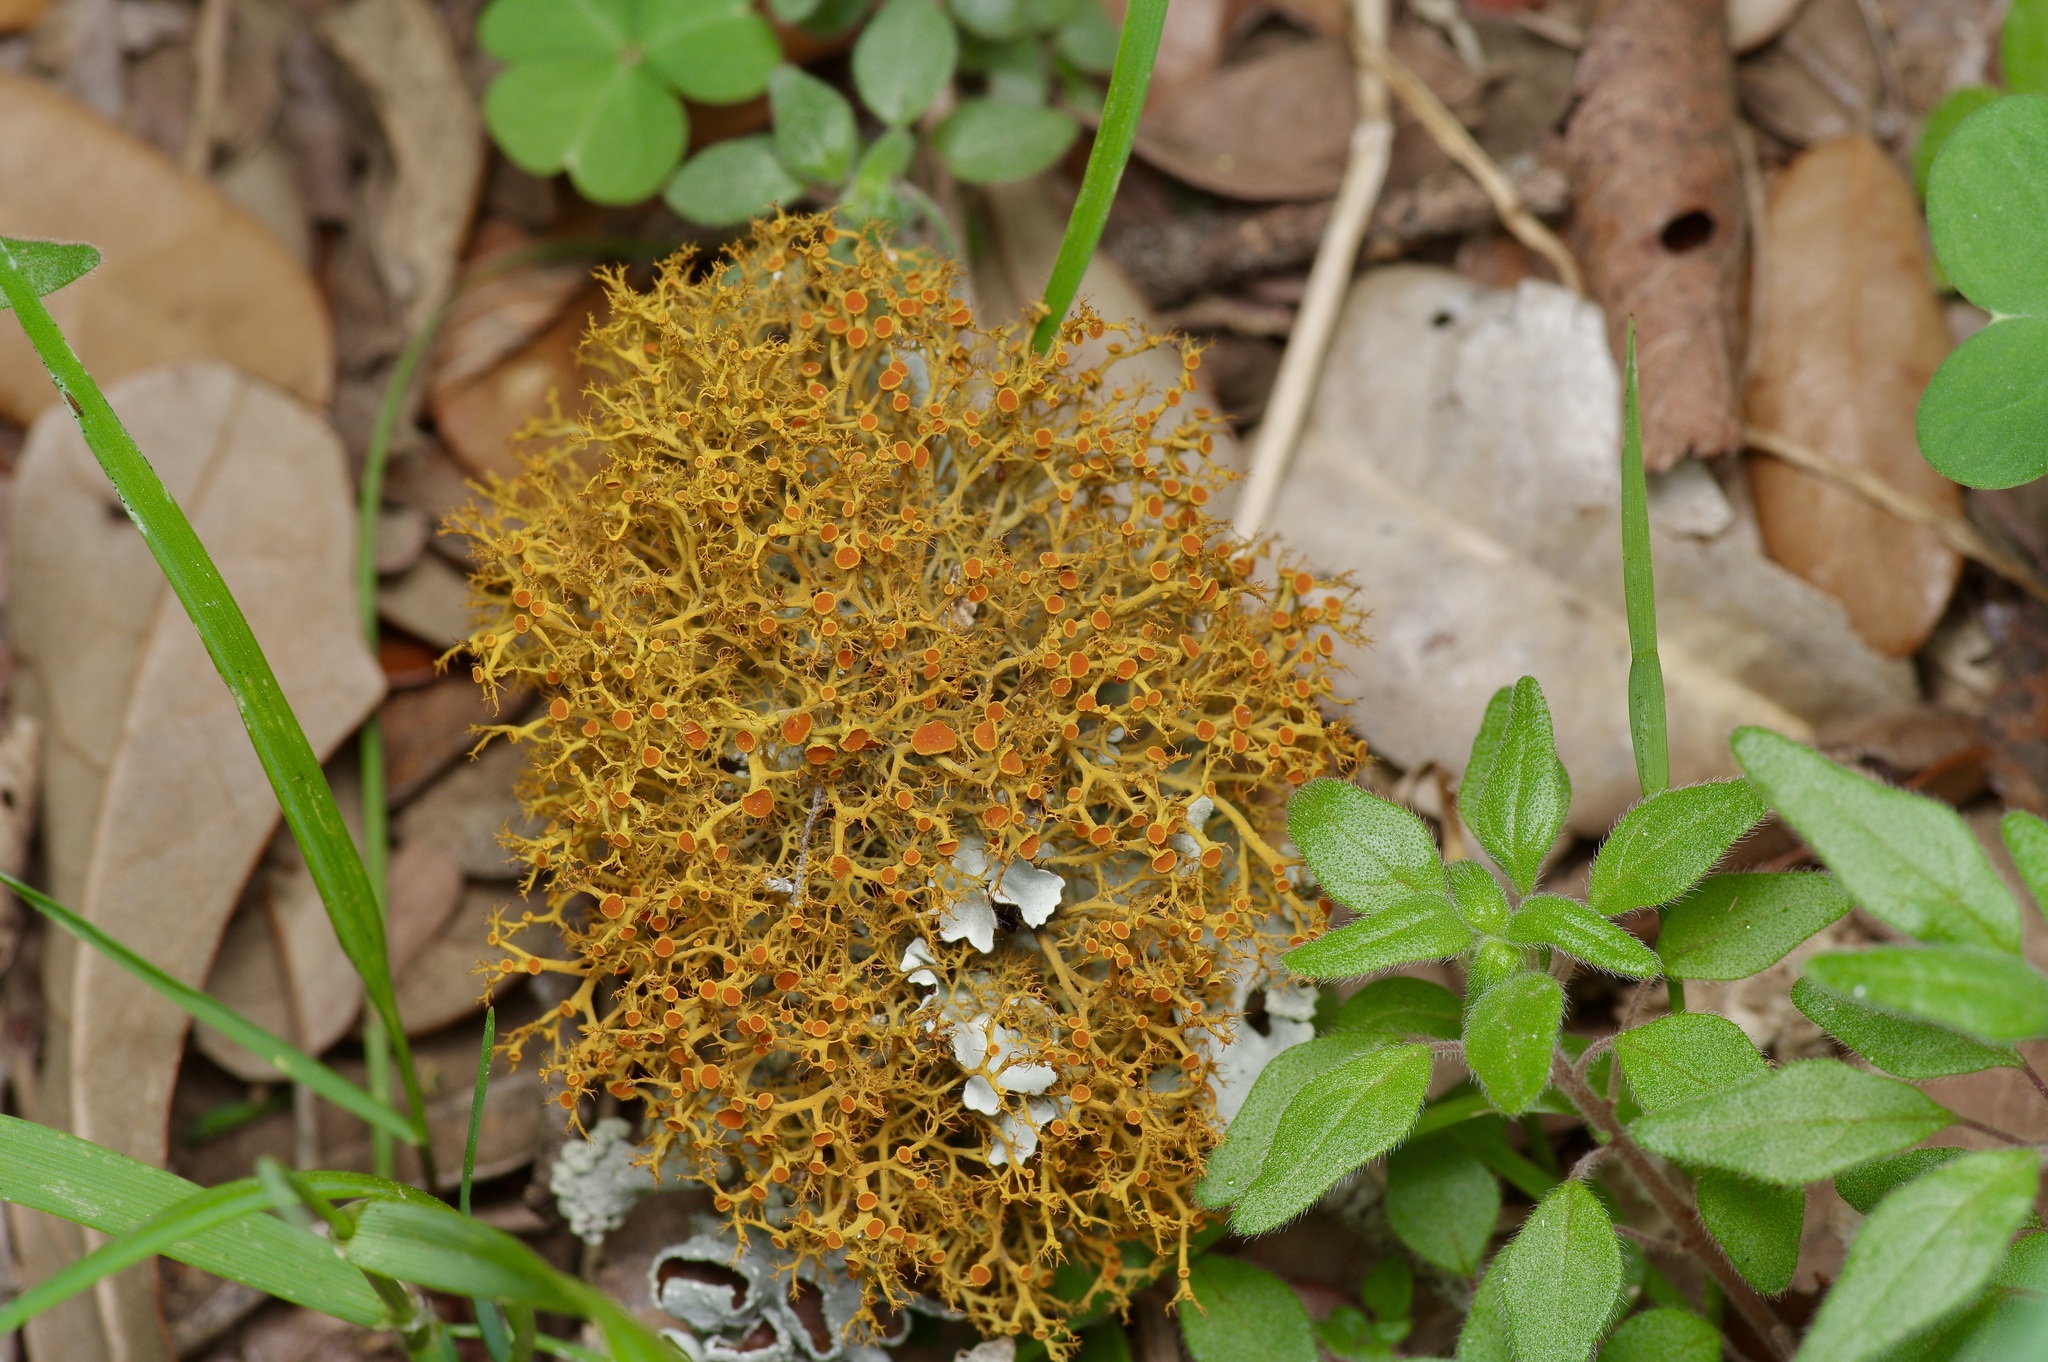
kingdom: Fungi
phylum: Ascomycota
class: Lecanoromycetes
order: Teloschistales
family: Teloschistaceae
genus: Teloschistes
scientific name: Teloschistes exilis
